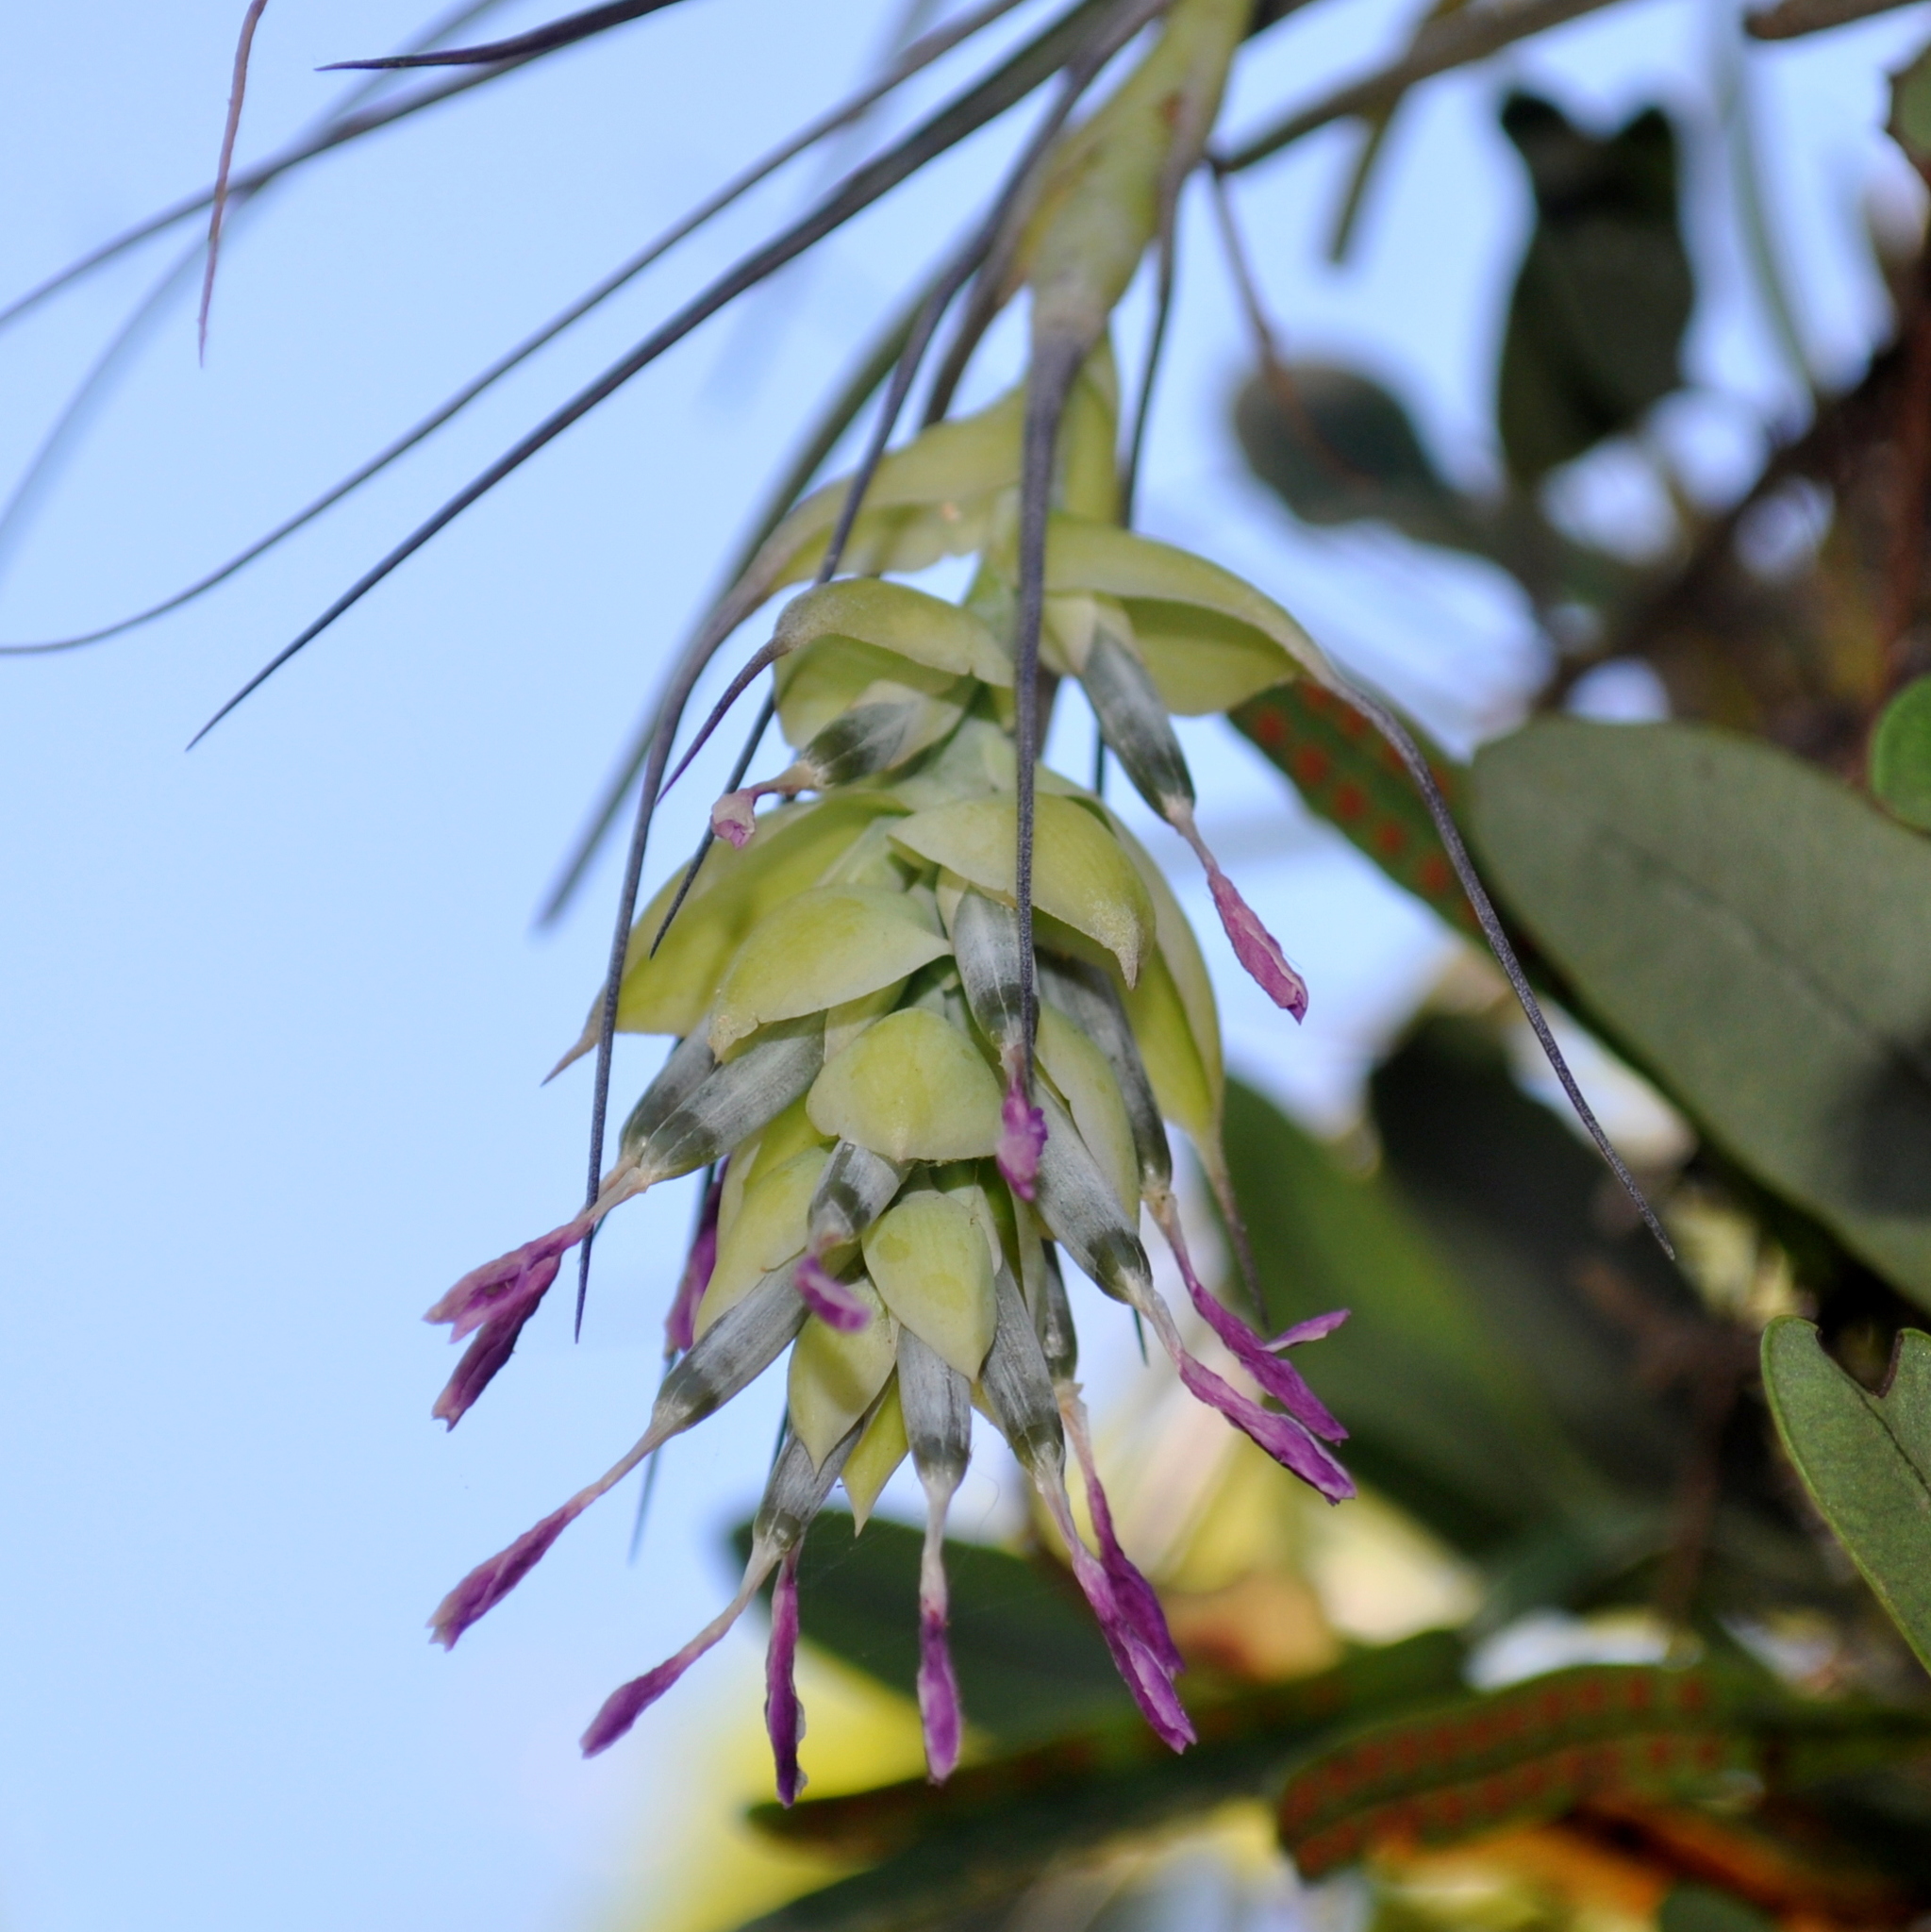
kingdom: Plantae
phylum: Tracheophyta
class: Liliopsida
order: Poales
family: Bromeliaceae
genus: Tillandsia
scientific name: Tillandsia stricta
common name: Airplant
